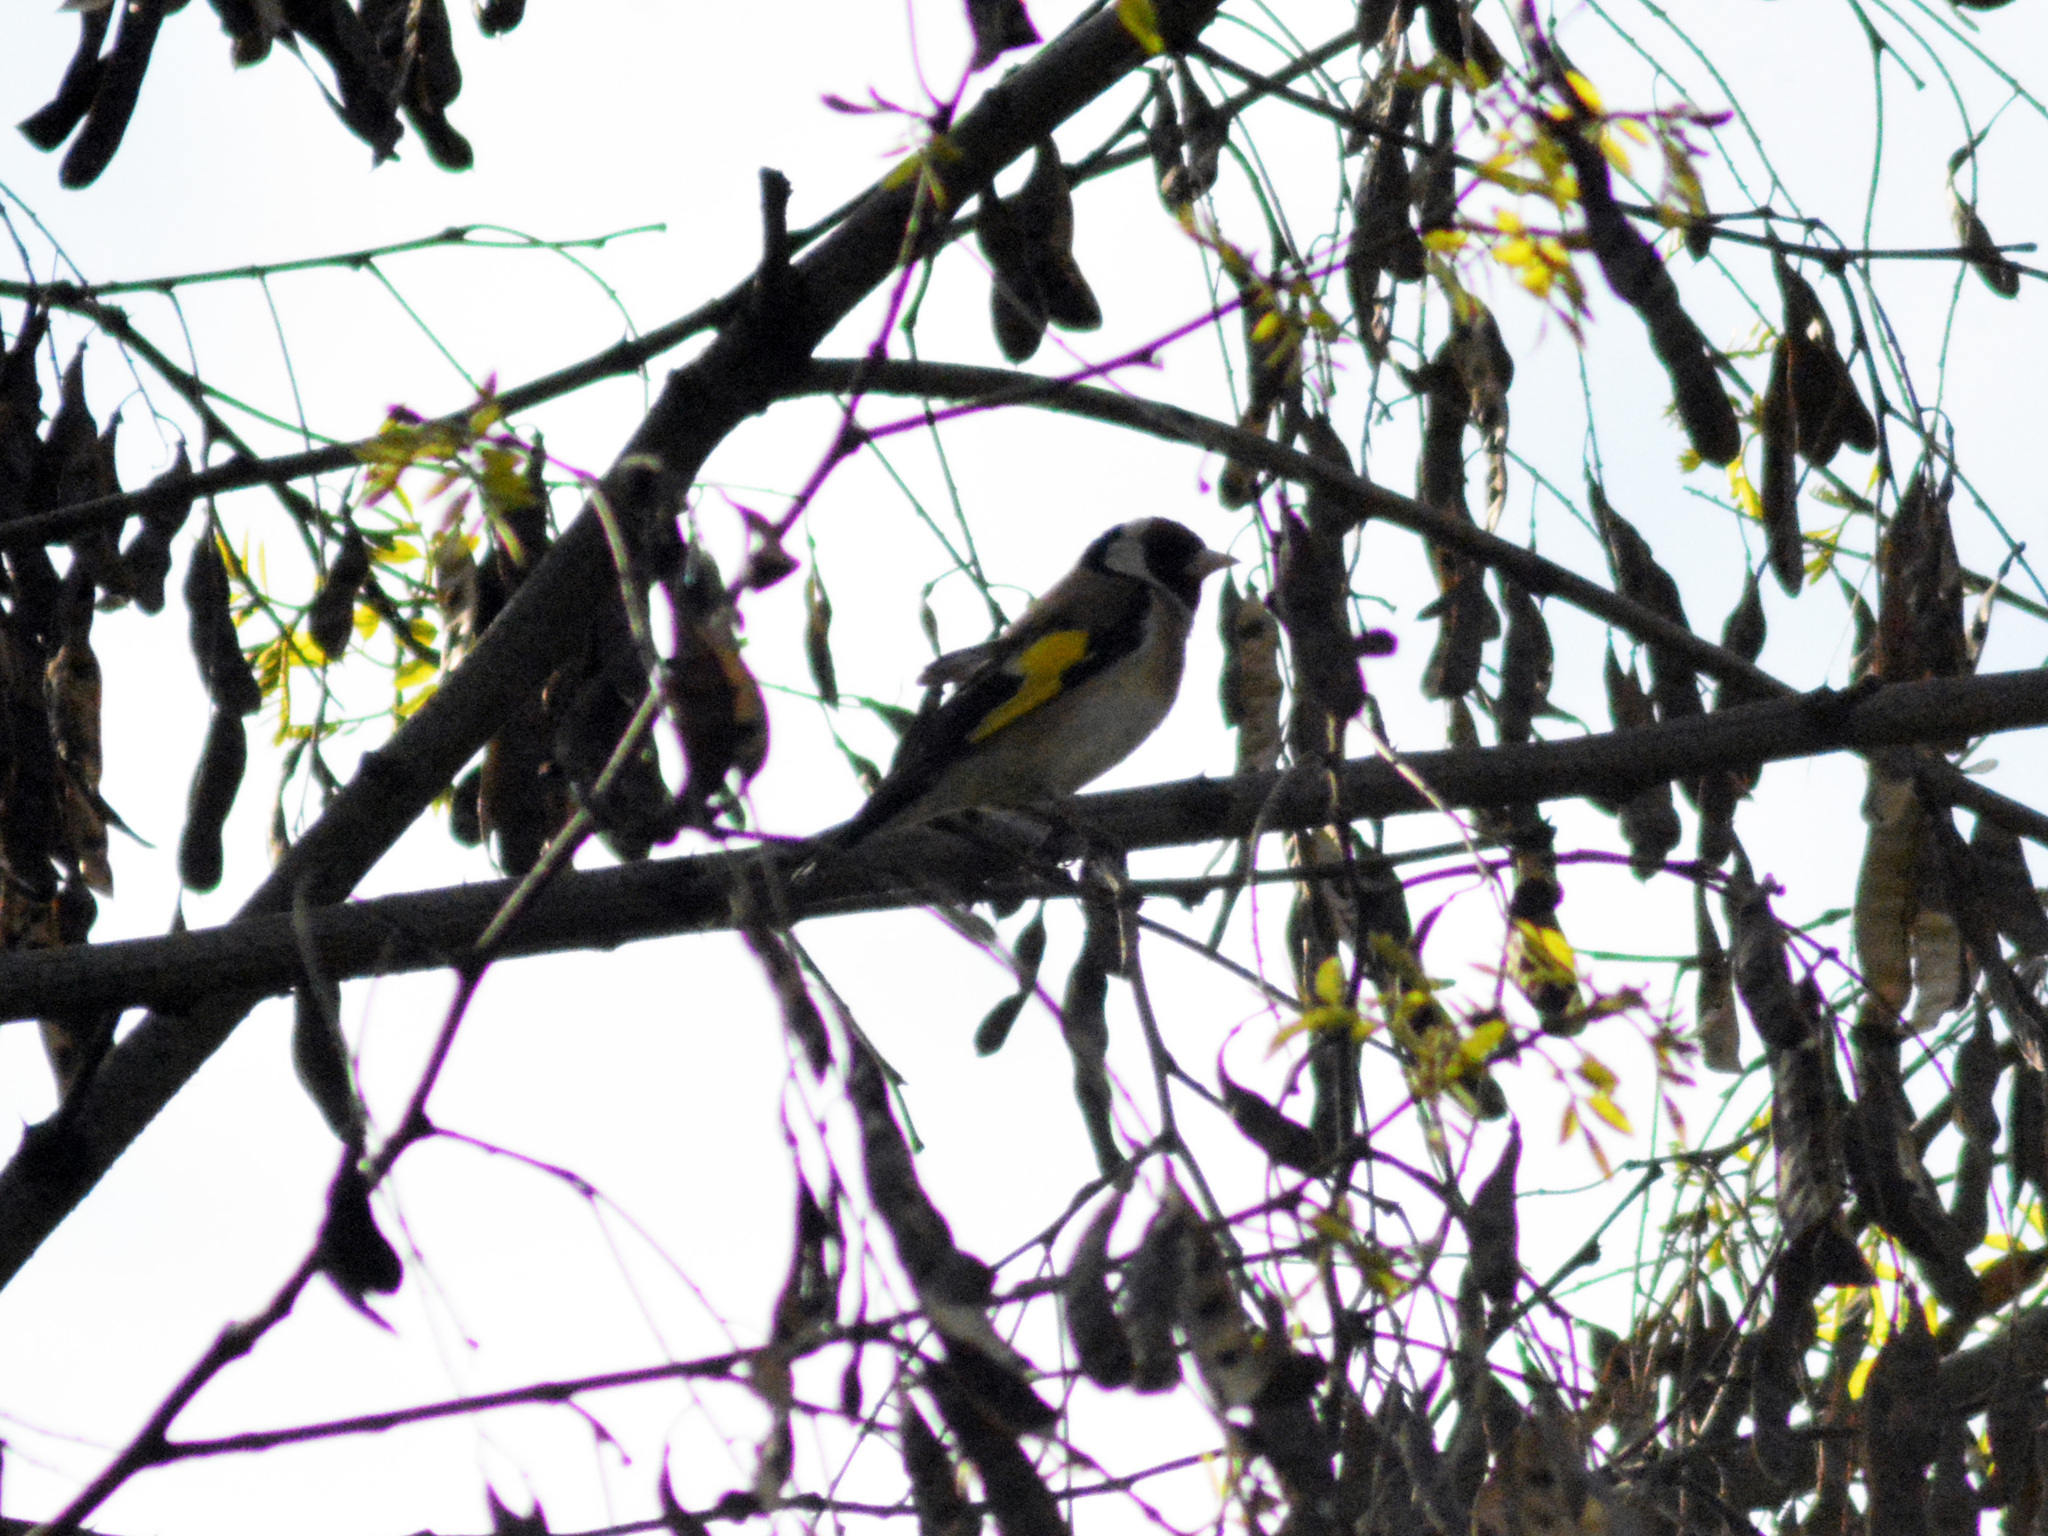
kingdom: Animalia
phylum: Chordata
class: Aves
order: Passeriformes
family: Fringillidae
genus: Carduelis
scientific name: Carduelis carduelis
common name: European goldfinch
